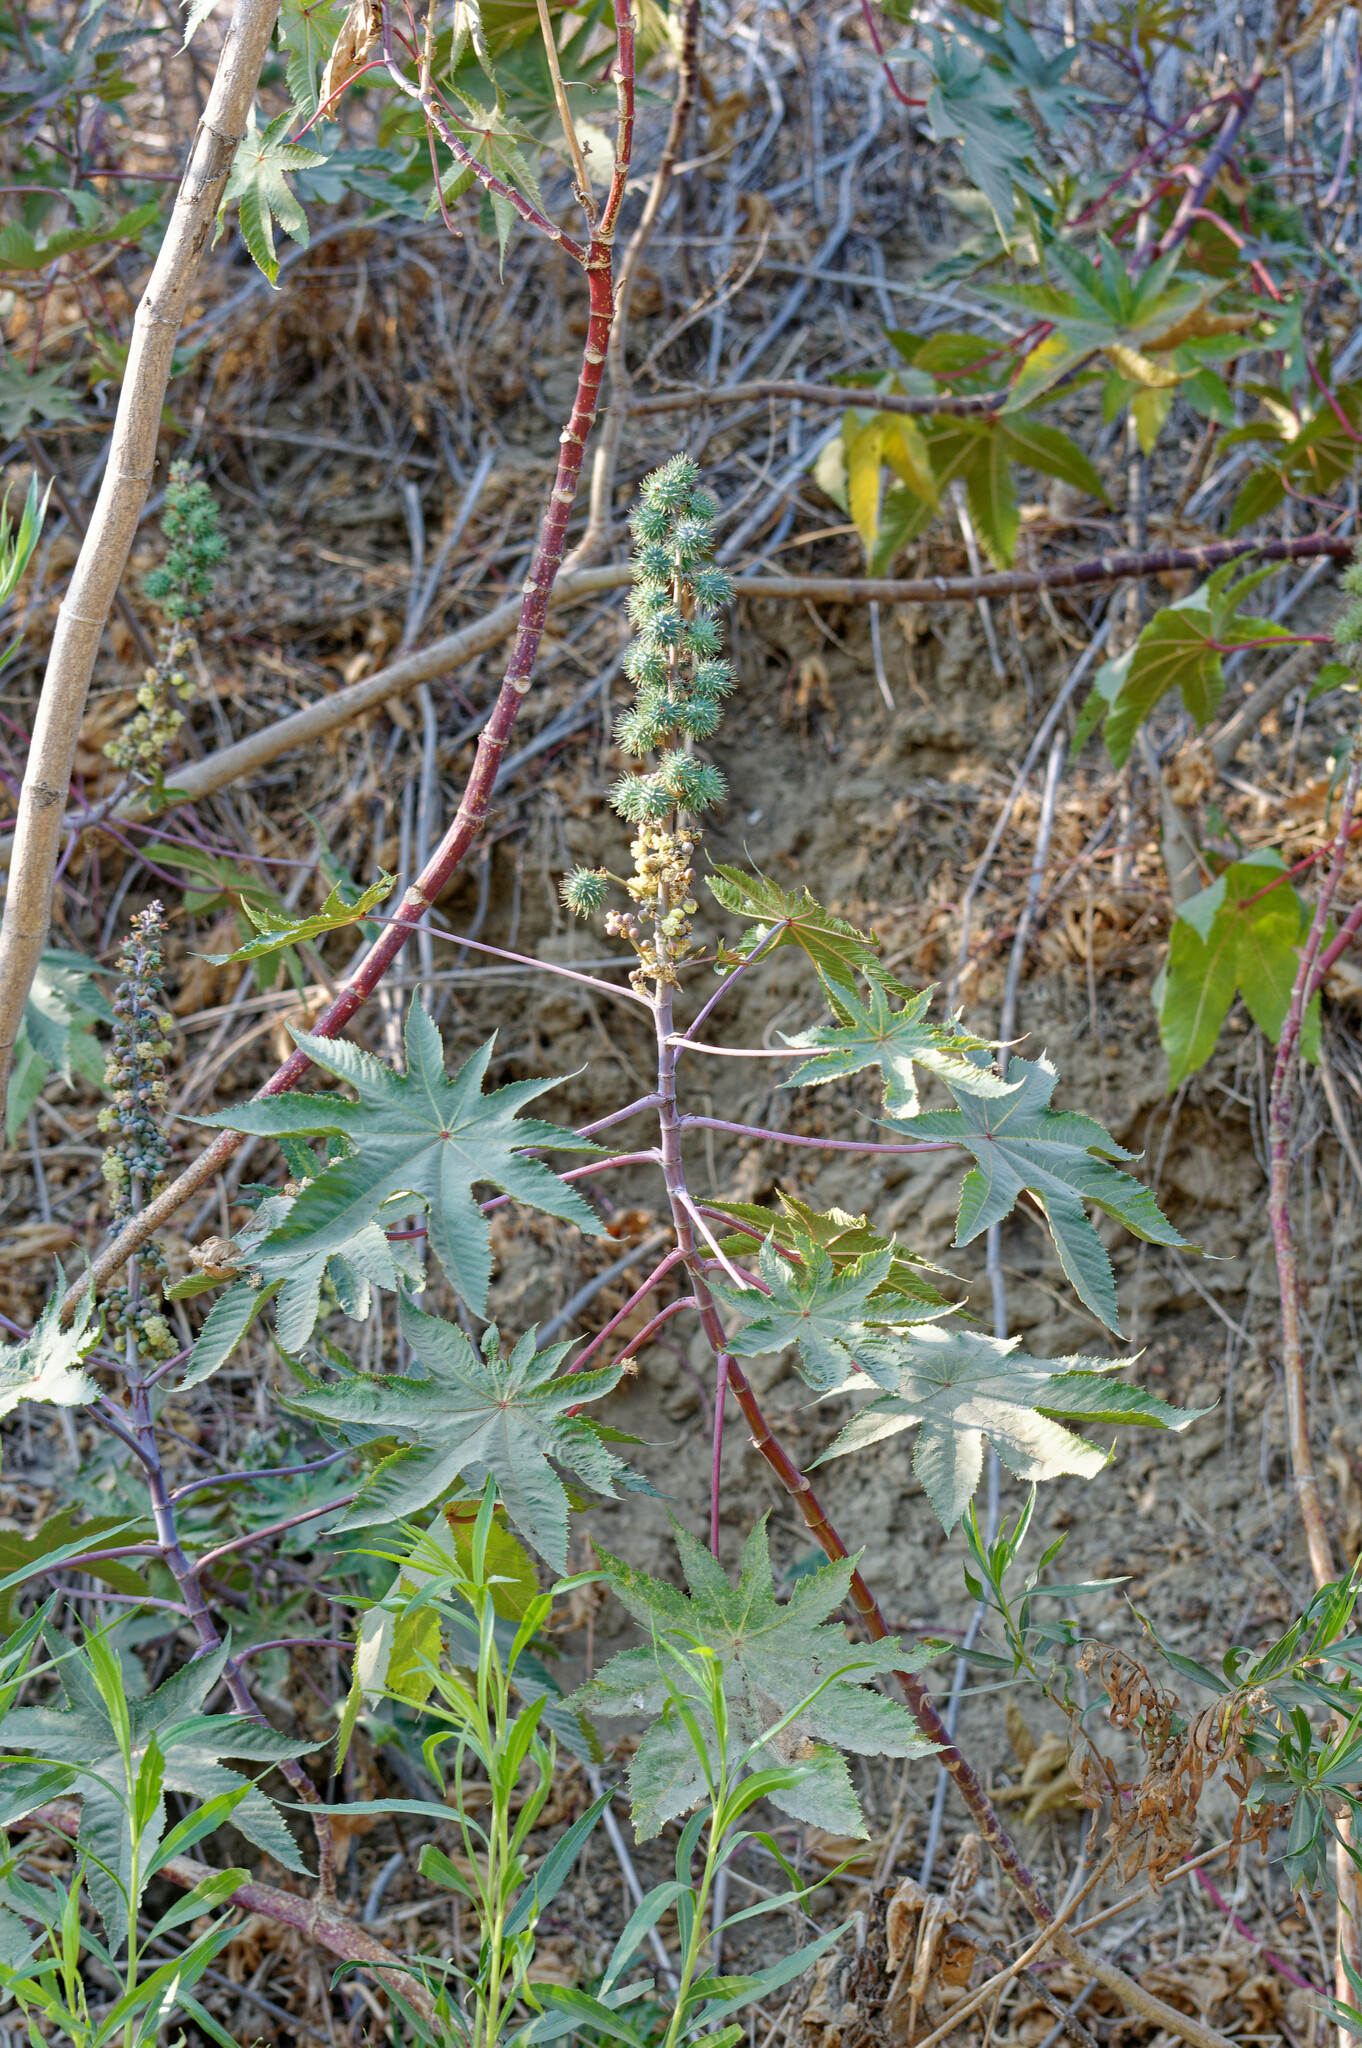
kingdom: Plantae
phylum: Tracheophyta
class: Magnoliopsida
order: Malpighiales
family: Euphorbiaceae
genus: Ricinus
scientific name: Ricinus communis
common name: Castor-oil-plant
